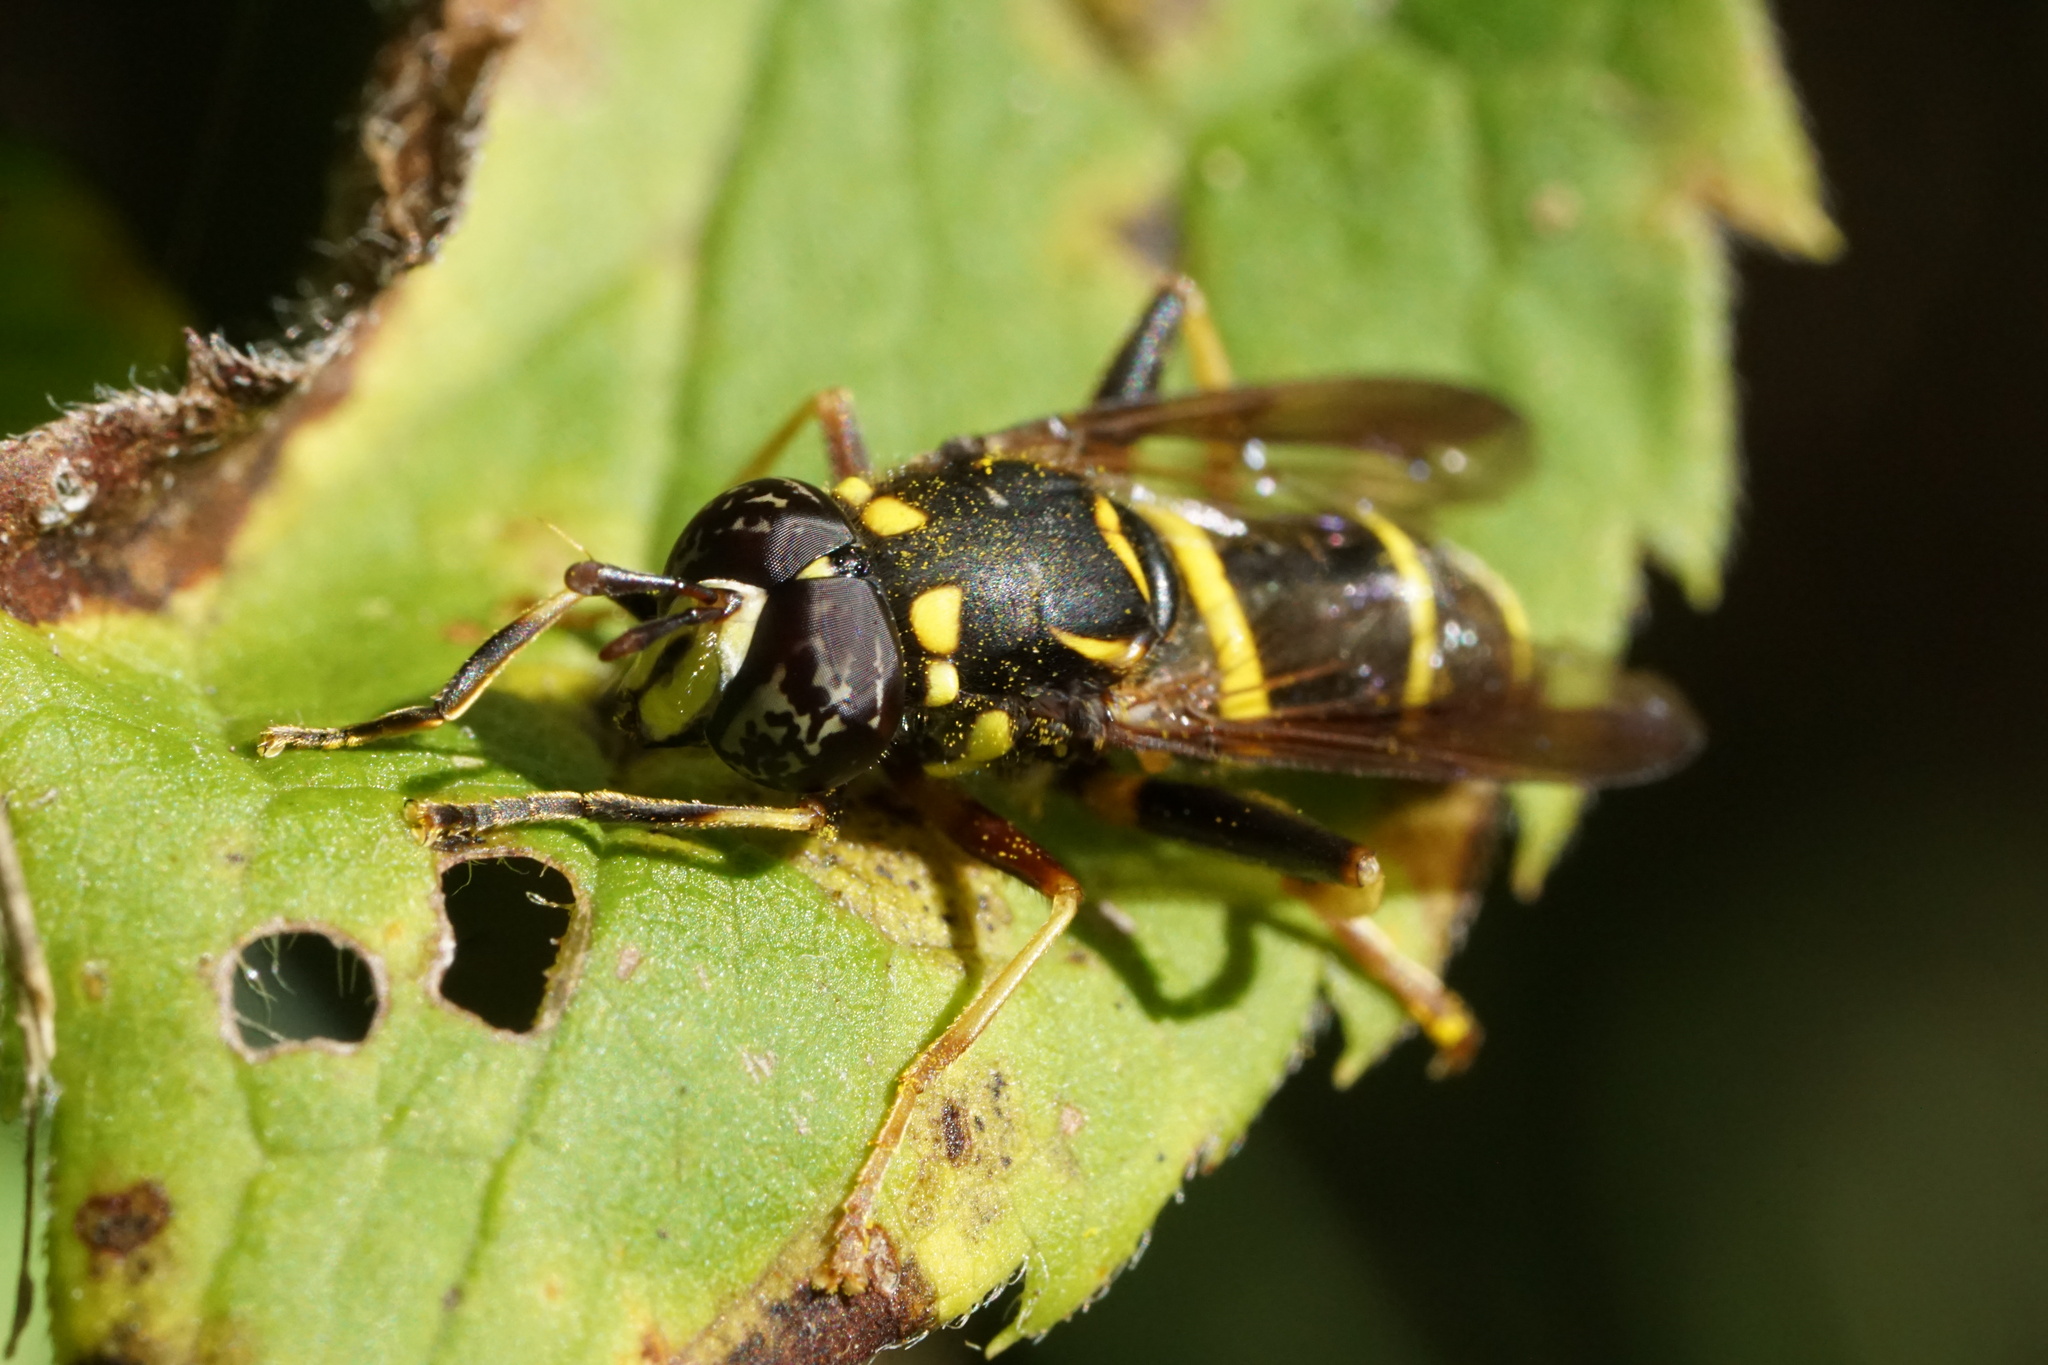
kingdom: Animalia
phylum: Arthropoda
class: Insecta
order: Diptera
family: Syrphidae
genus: Spilomyia
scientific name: Spilomyia sayi
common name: Four-lined hornet fly
